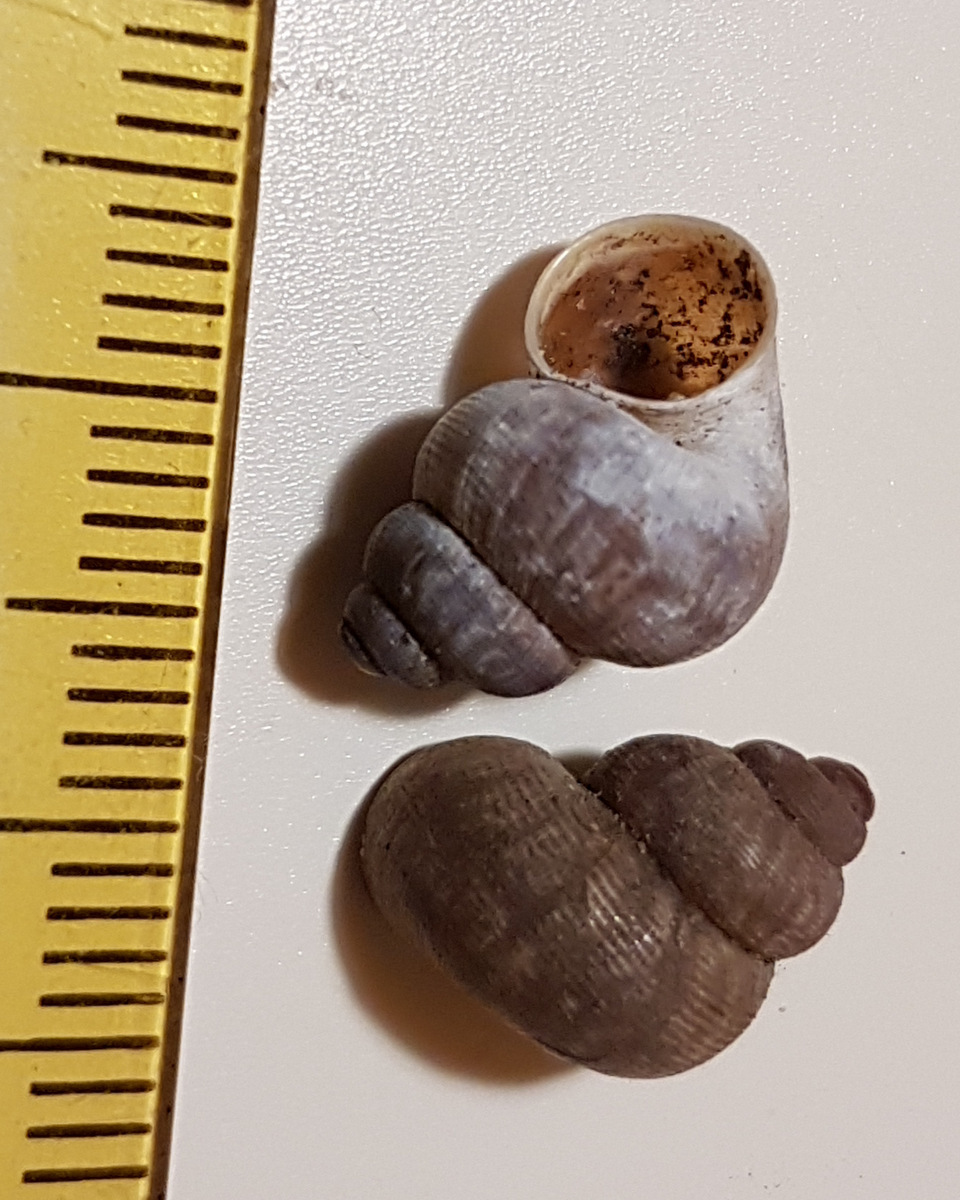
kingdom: Animalia
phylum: Mollusca
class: Gastropoda
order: Littorinimorpha
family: Pomatiidae
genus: Pomatias
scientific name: Pomatias elegans
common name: Red-mouthed snail
